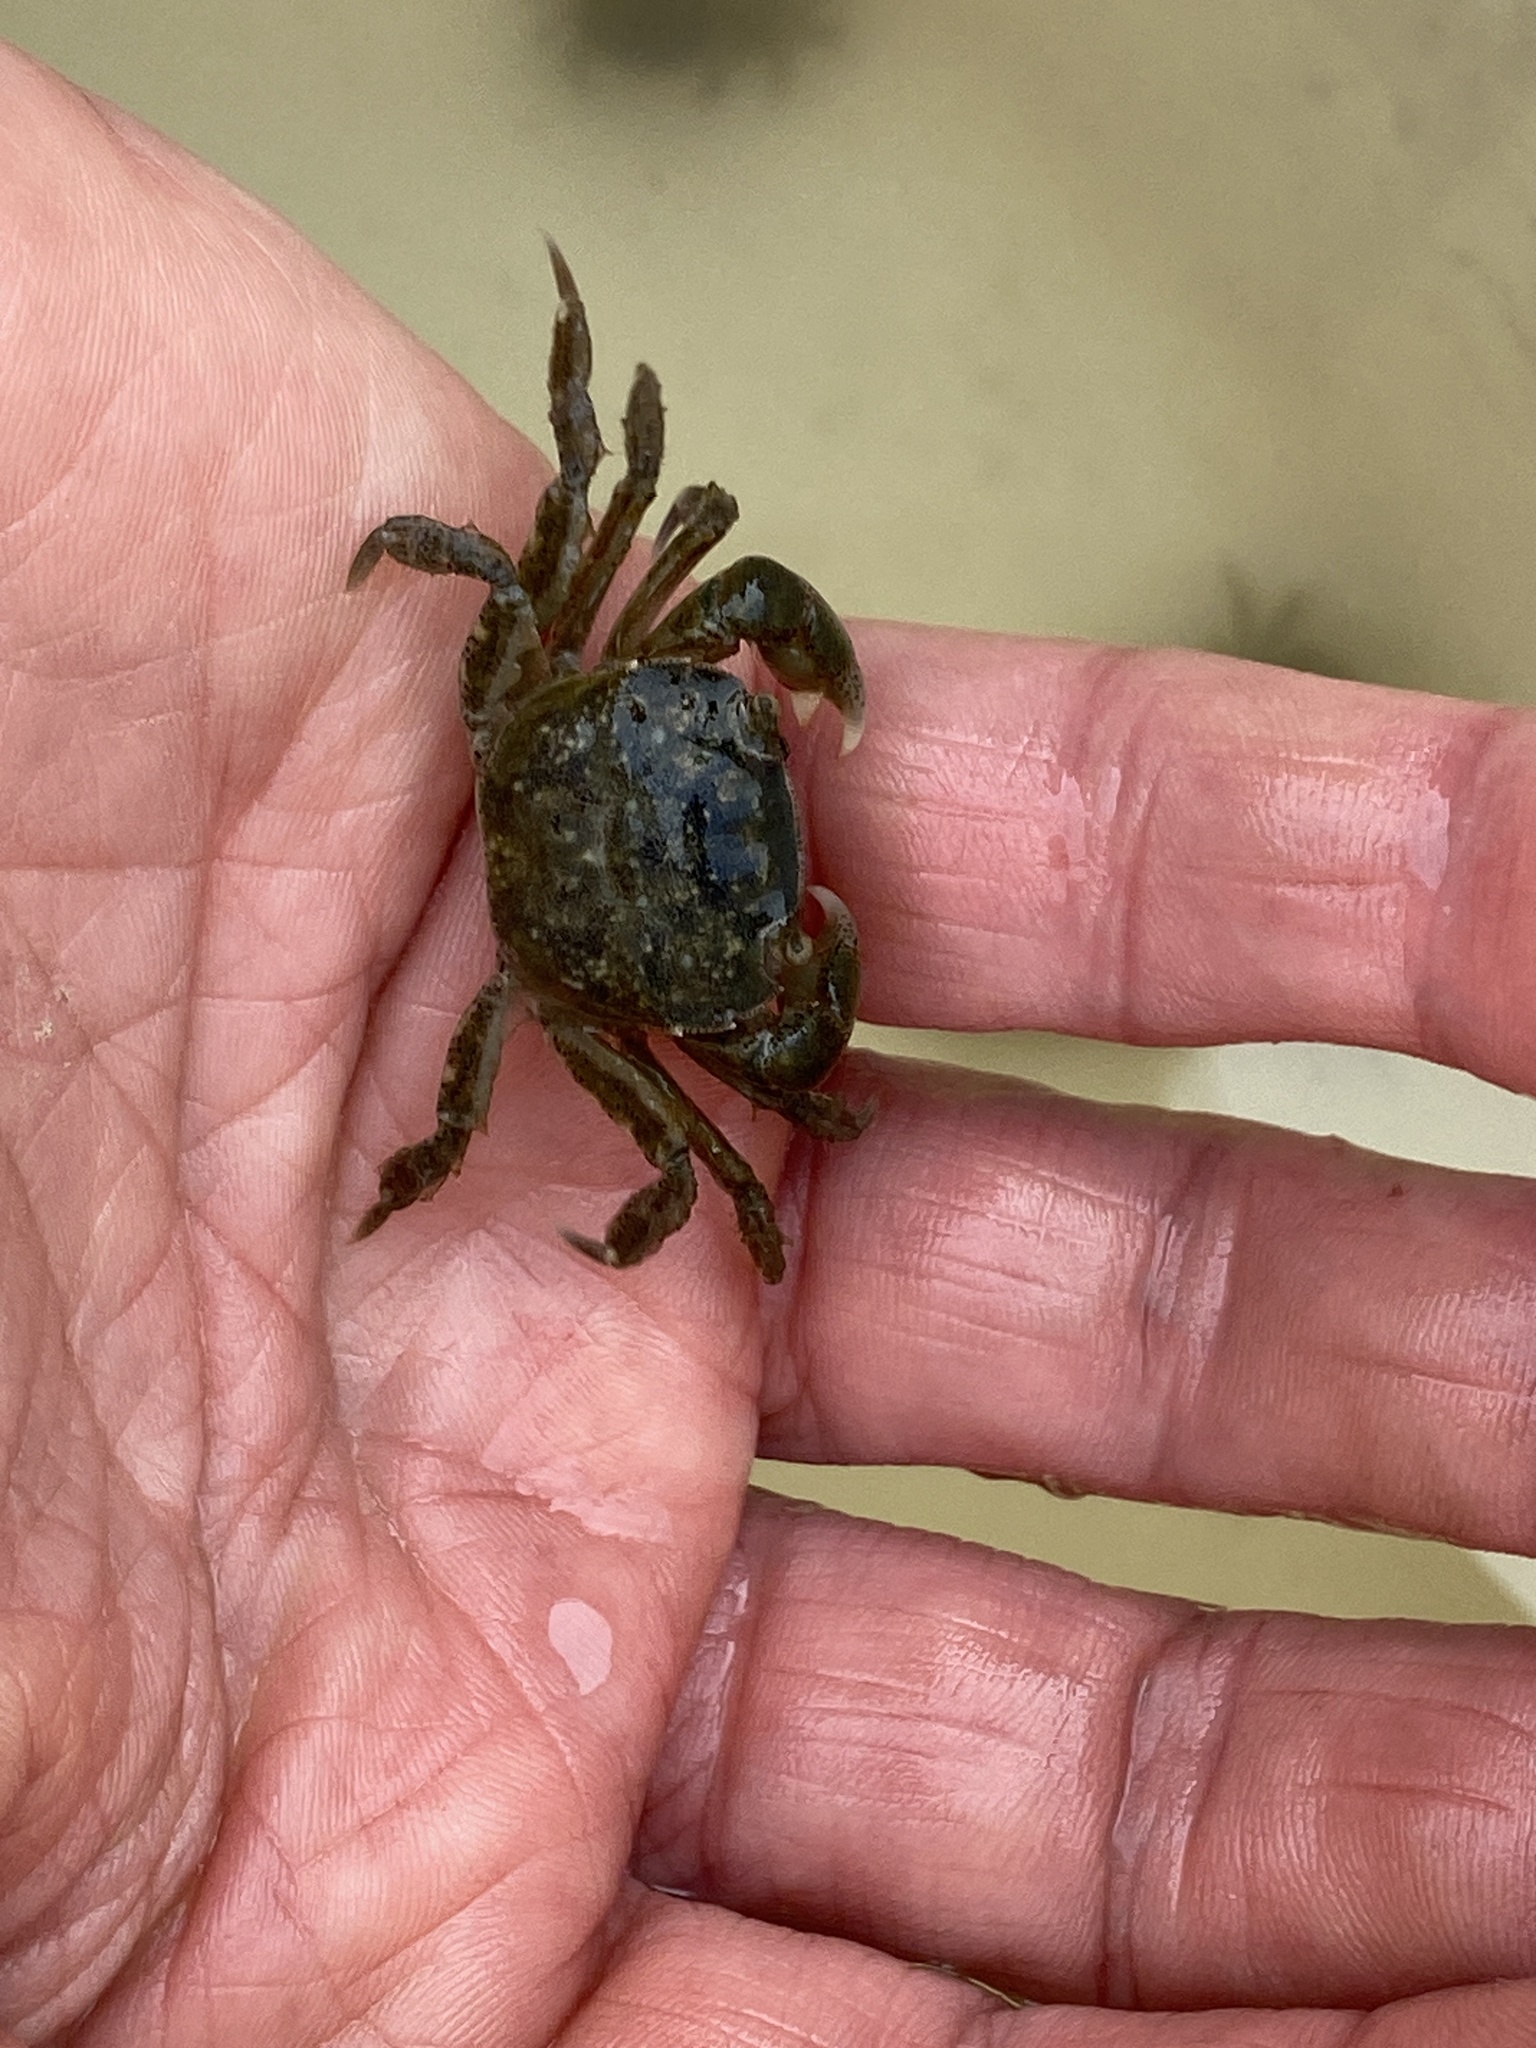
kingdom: Animalia
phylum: Arthropoda
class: Malacostraca
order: Decapoda
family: Varunidae
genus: Hemigrapsus
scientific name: Hemigrapsus crenulatus
